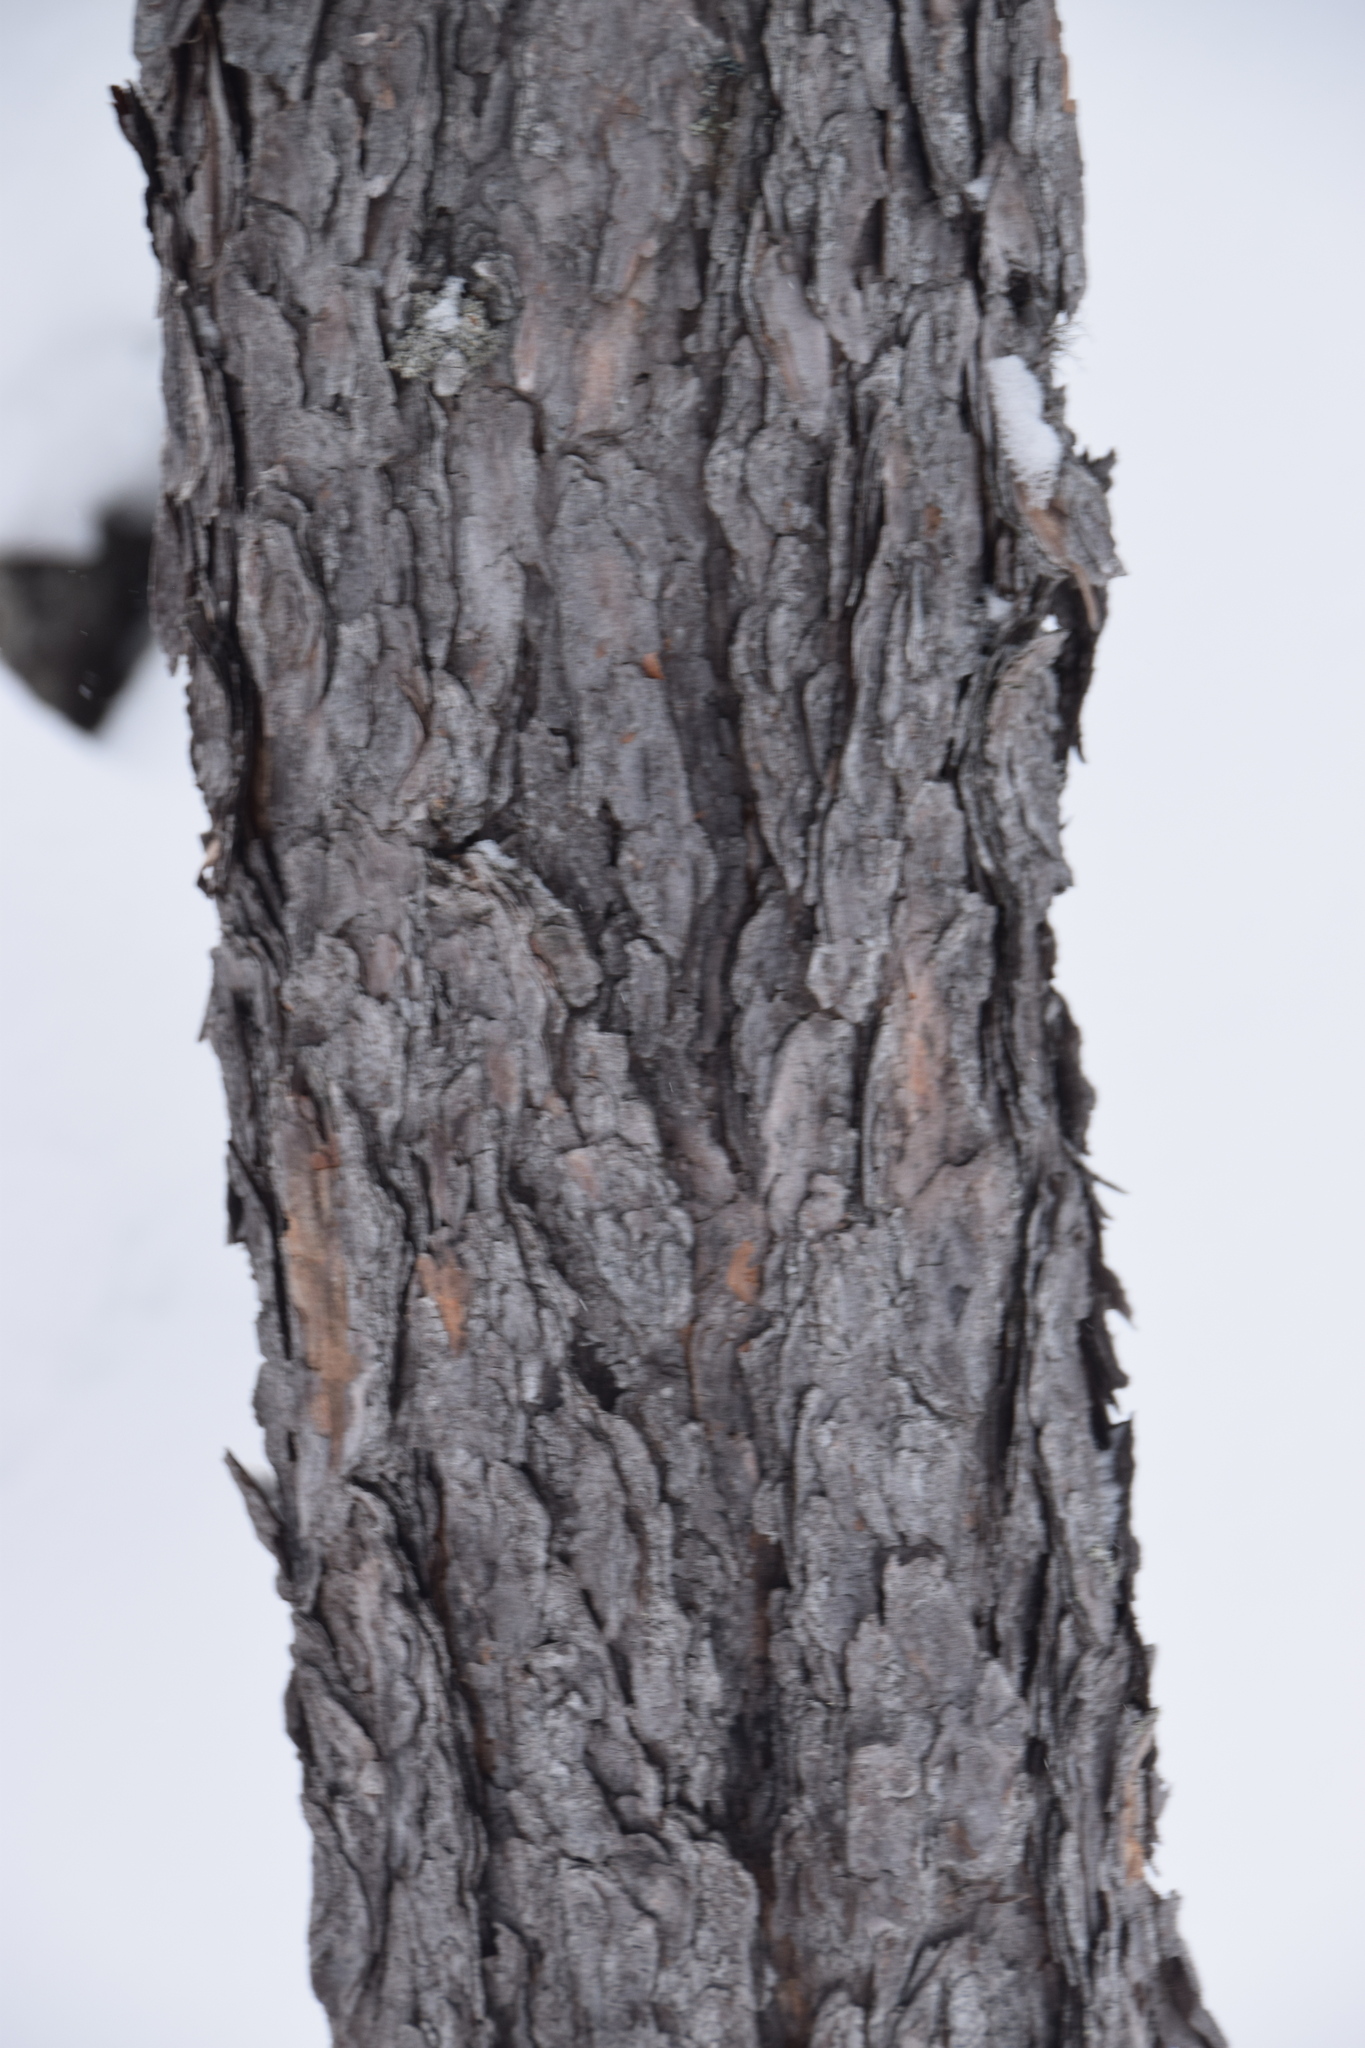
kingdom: Plantae
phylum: Tracheophyta
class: Pinopsida
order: Pinales
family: Pinaceae
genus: Pinus
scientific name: Pinus banksiana
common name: Jack pine
